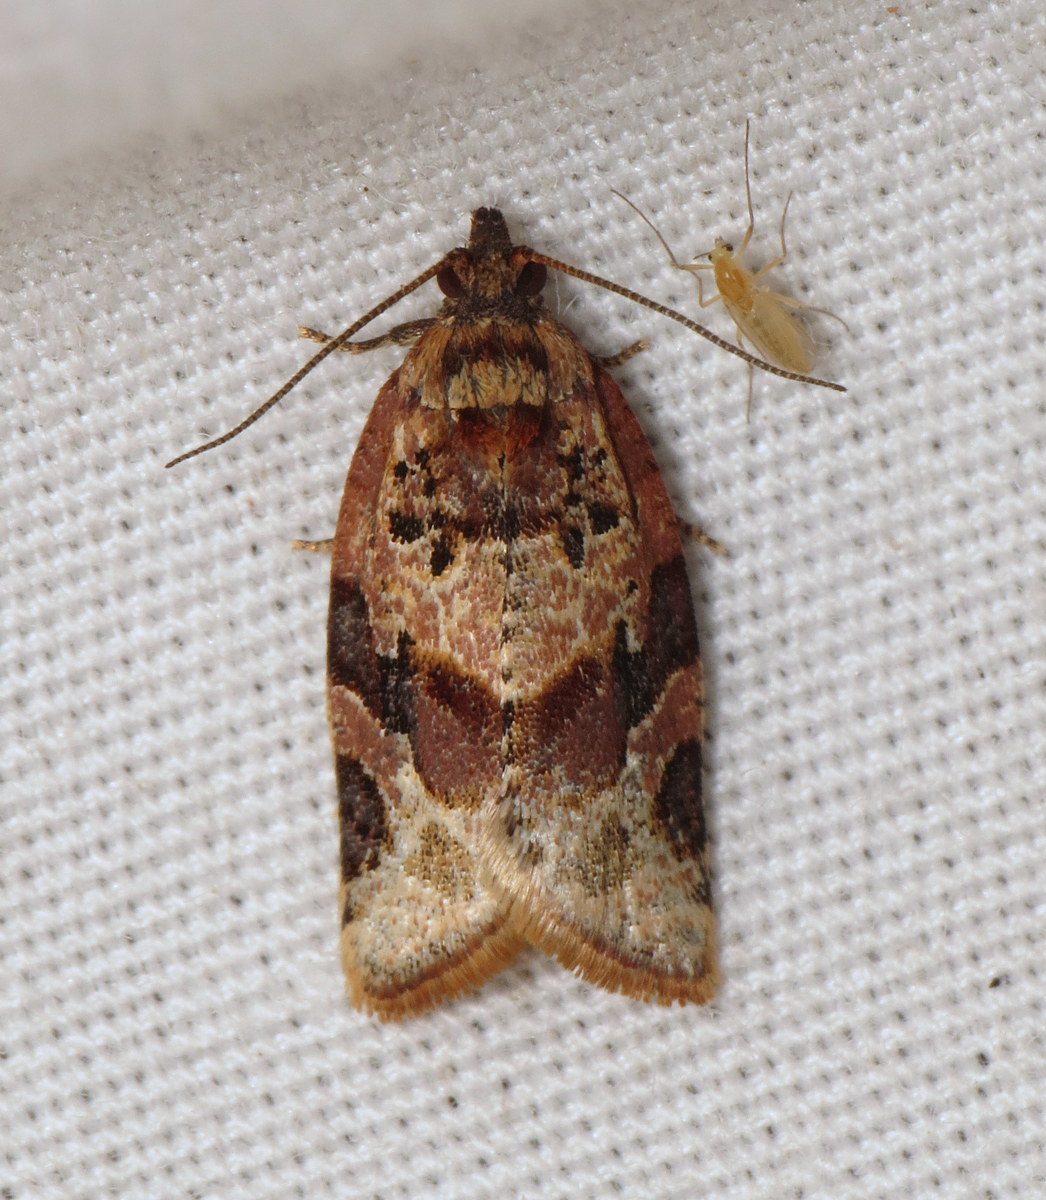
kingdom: Animalia
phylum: Arthropoda
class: Insecta
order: Lepidoptera
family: Tortricidae
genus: Argyrotaenia
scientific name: Argyrotaenia velutinana
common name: Red-banded leafroller moth
